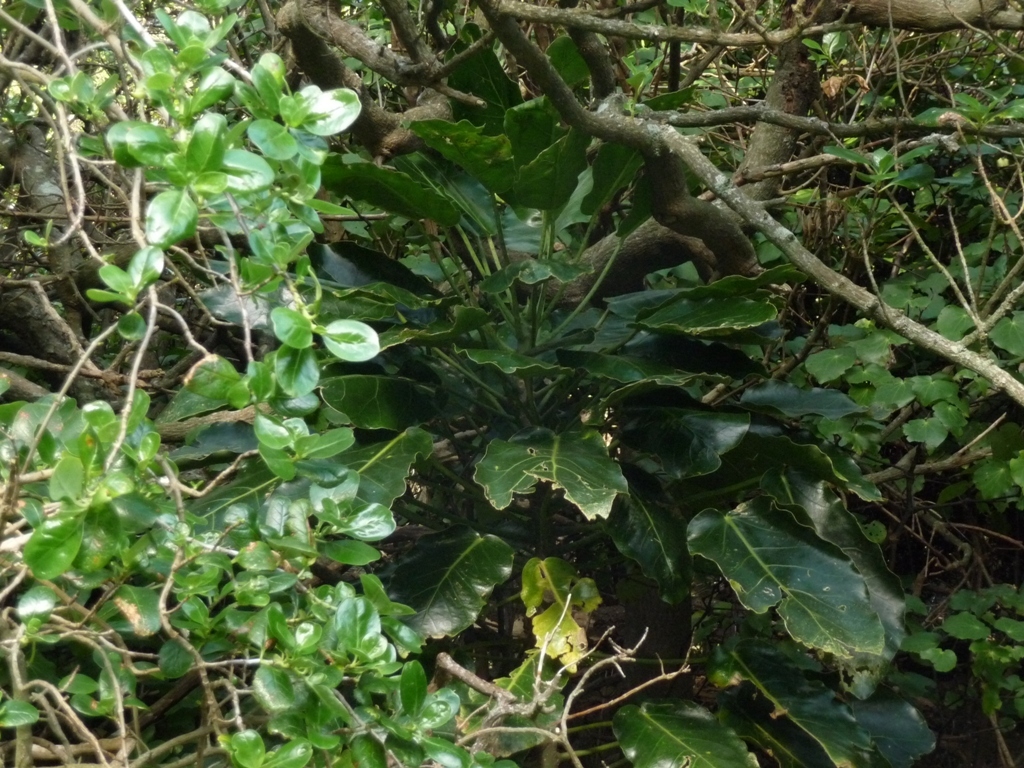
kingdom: Plantae
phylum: Tracheophyta
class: Magnoliopsida
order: Apiales
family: Araliaceae
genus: Meryta
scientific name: Meryta sinclairii
